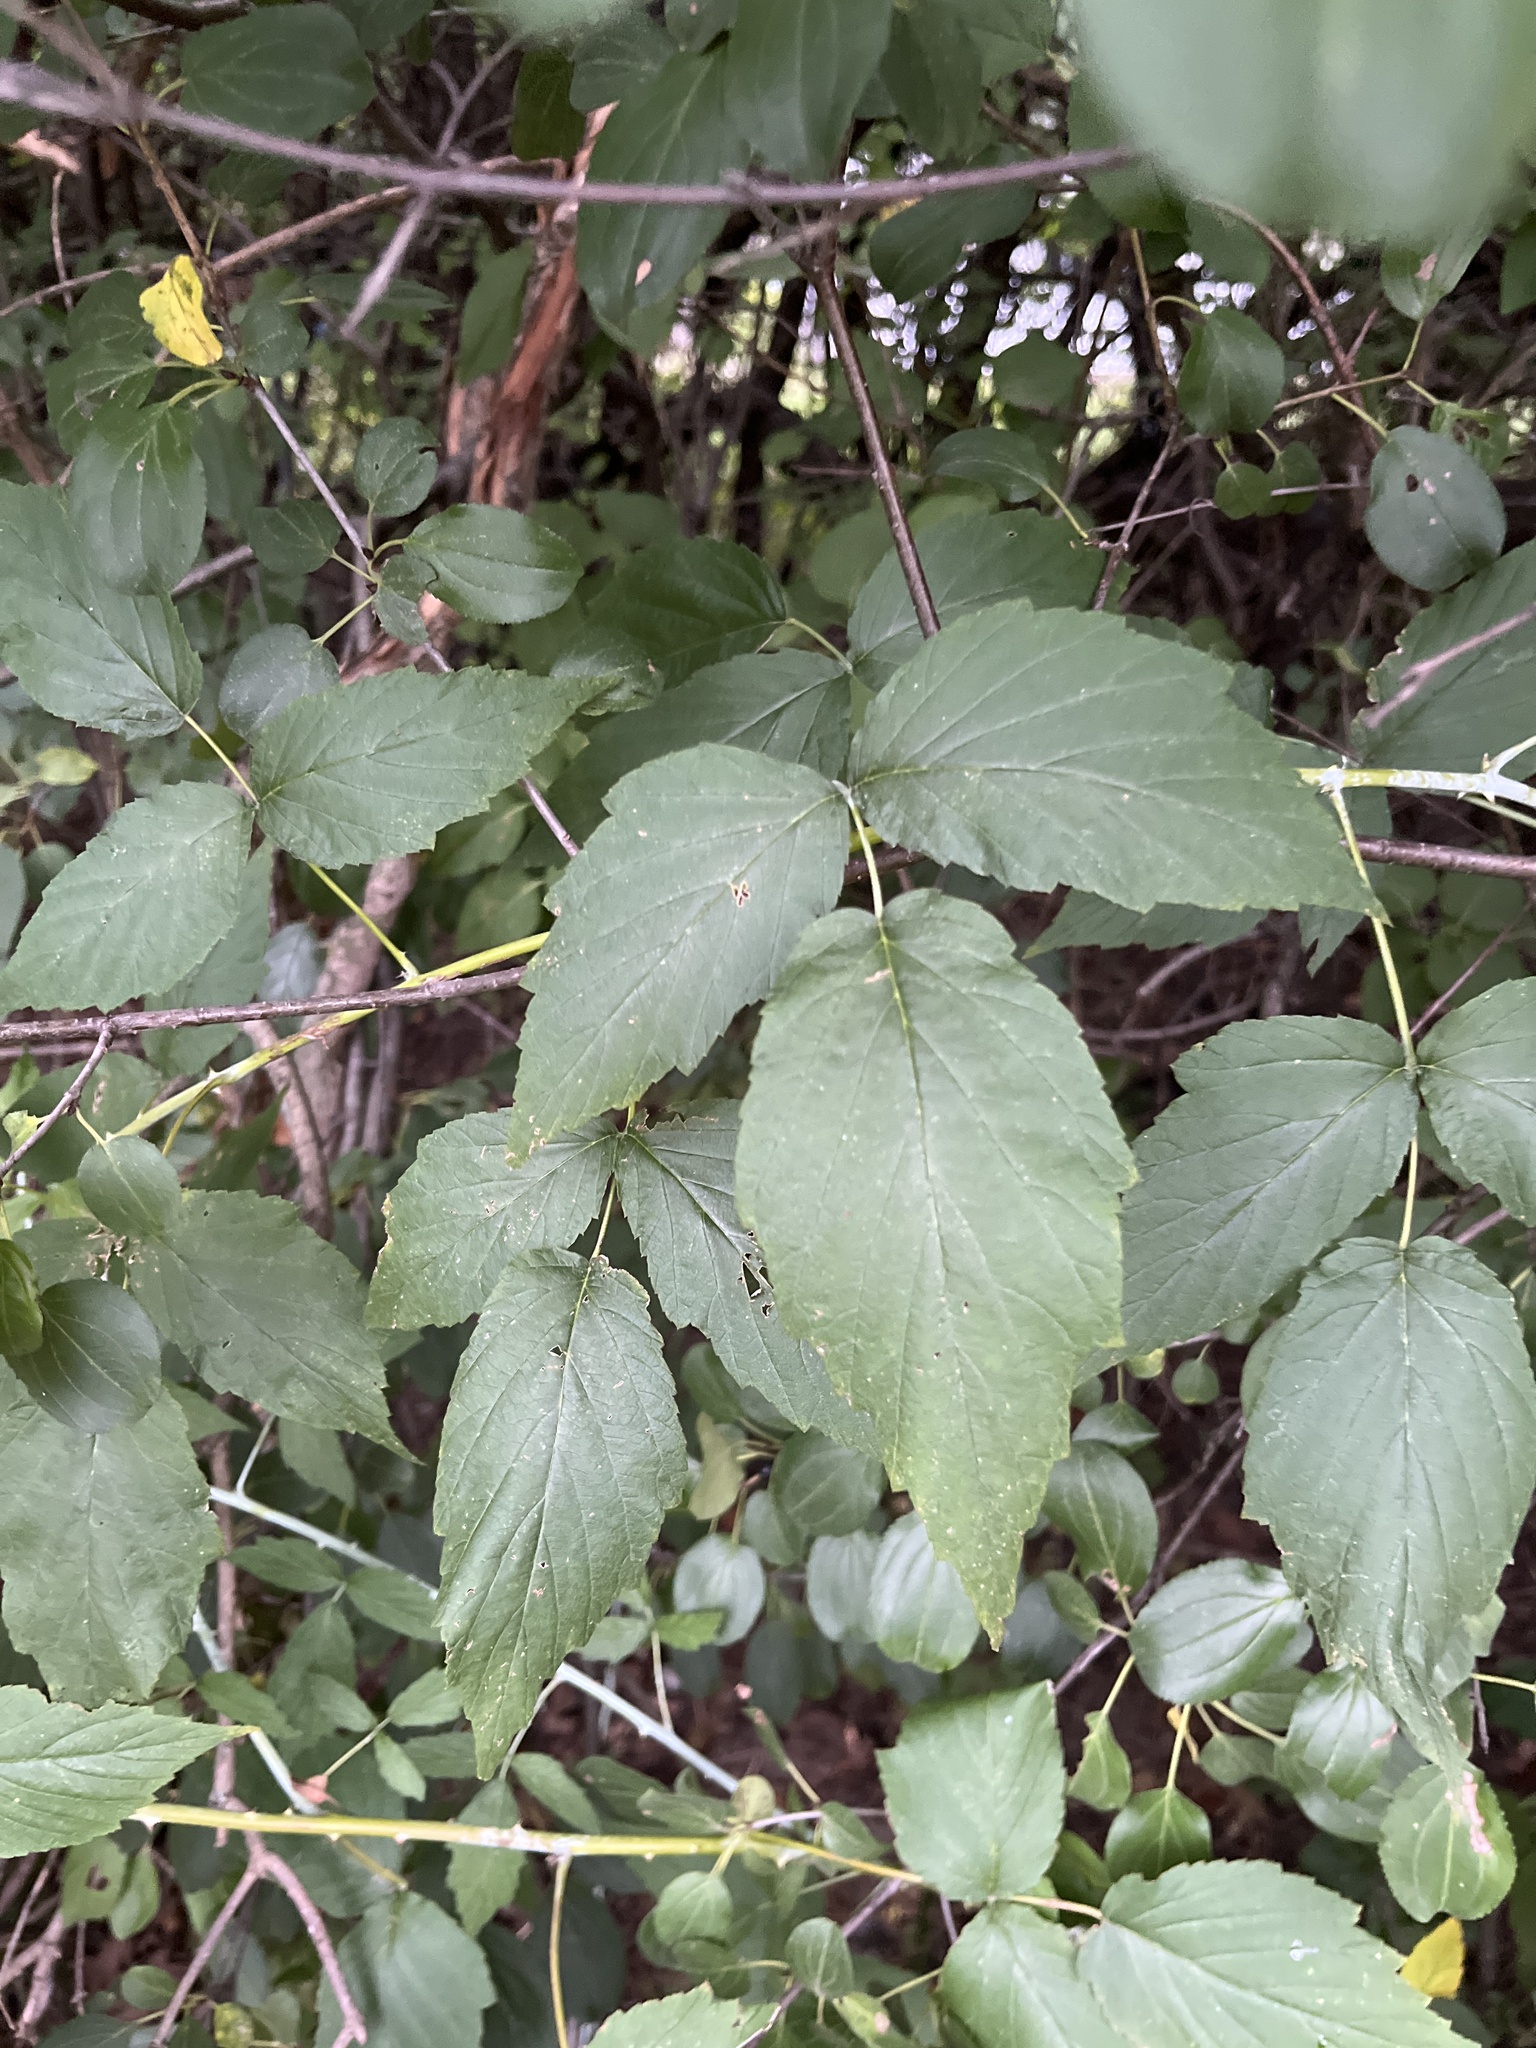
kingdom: Plantae
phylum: Tracheophyta
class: Magnoliopsida
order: Rosales
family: Rosaceae
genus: Rubus
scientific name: Rubus occidentalis
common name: Black raspberry
